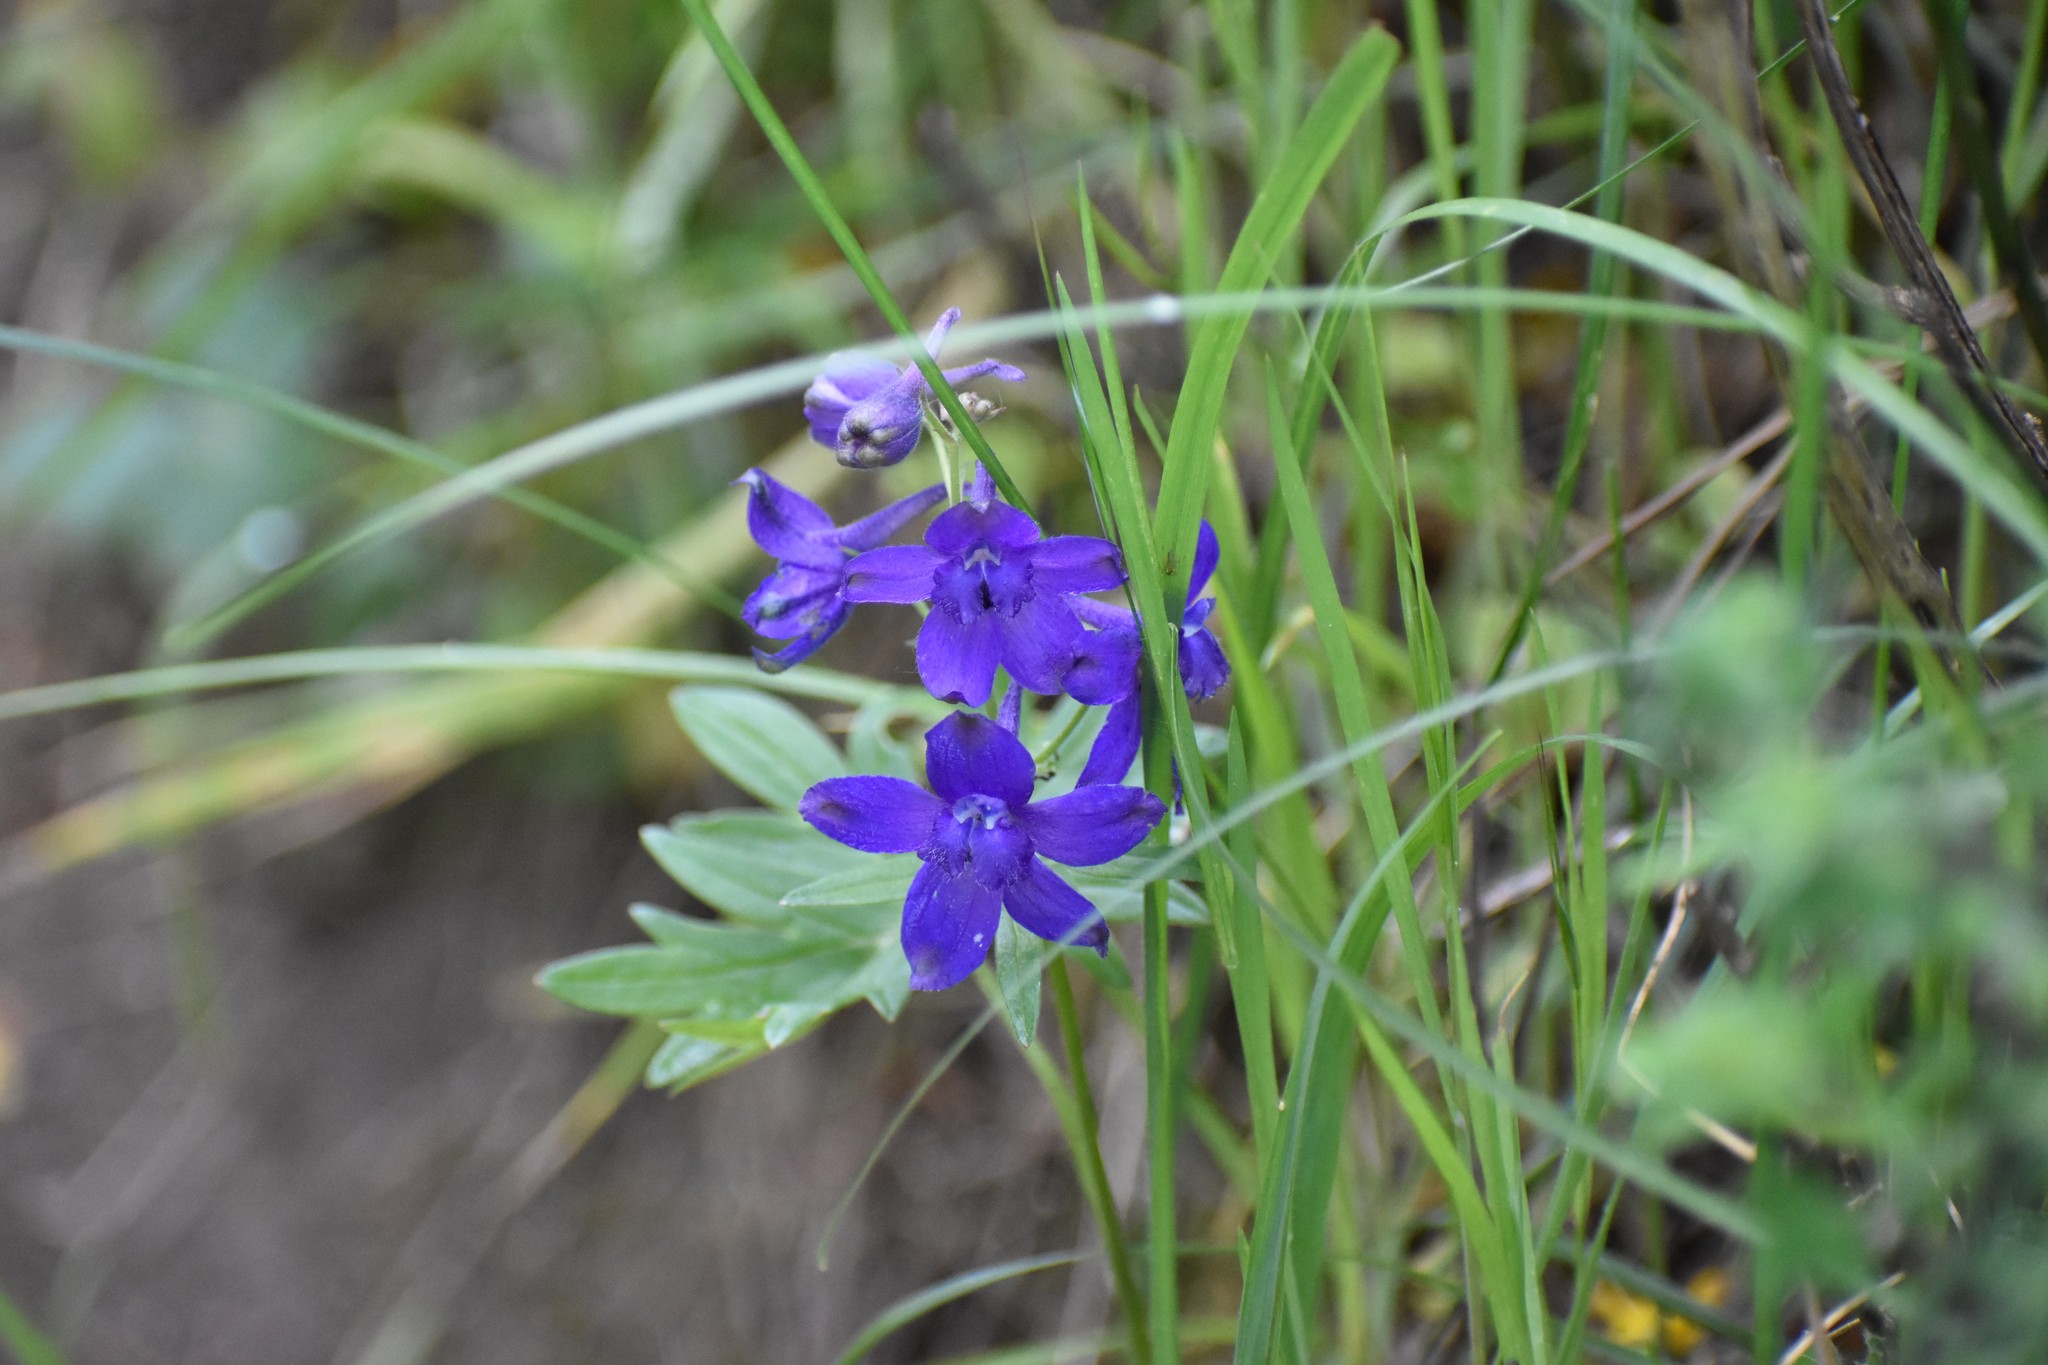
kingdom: Plantae
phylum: Tracheophyta
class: Magnoliopsida
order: Ranunculales
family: Ranunculaceae
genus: Delphinium
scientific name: Delphinium menziesii
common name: Menzies's larkspur
